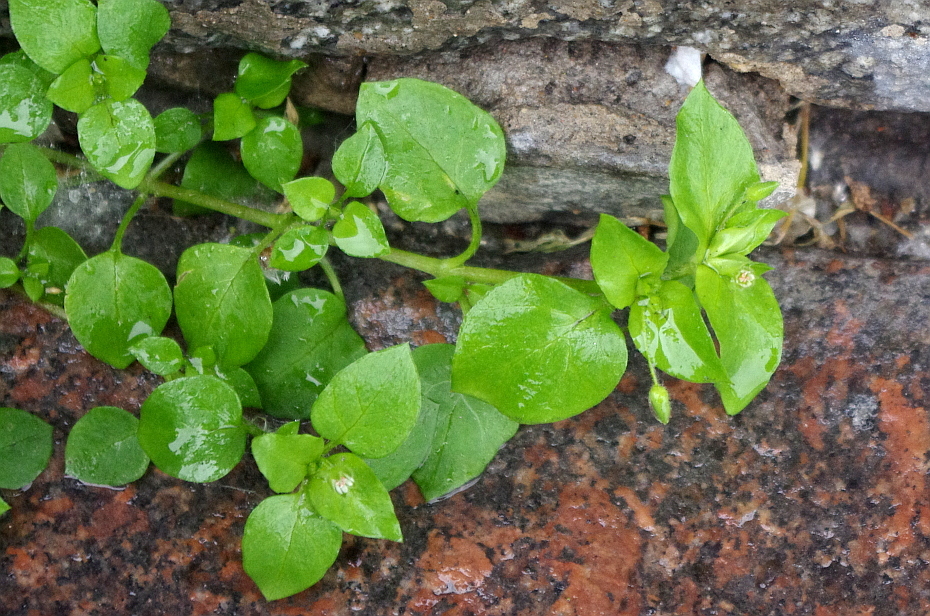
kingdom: Plantae
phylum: Tracheophyta
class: Magnoliopsida
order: Caryophyllales
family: Caryophyllaceae
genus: Stellaria
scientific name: Stellaria media
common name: Common chickweed
